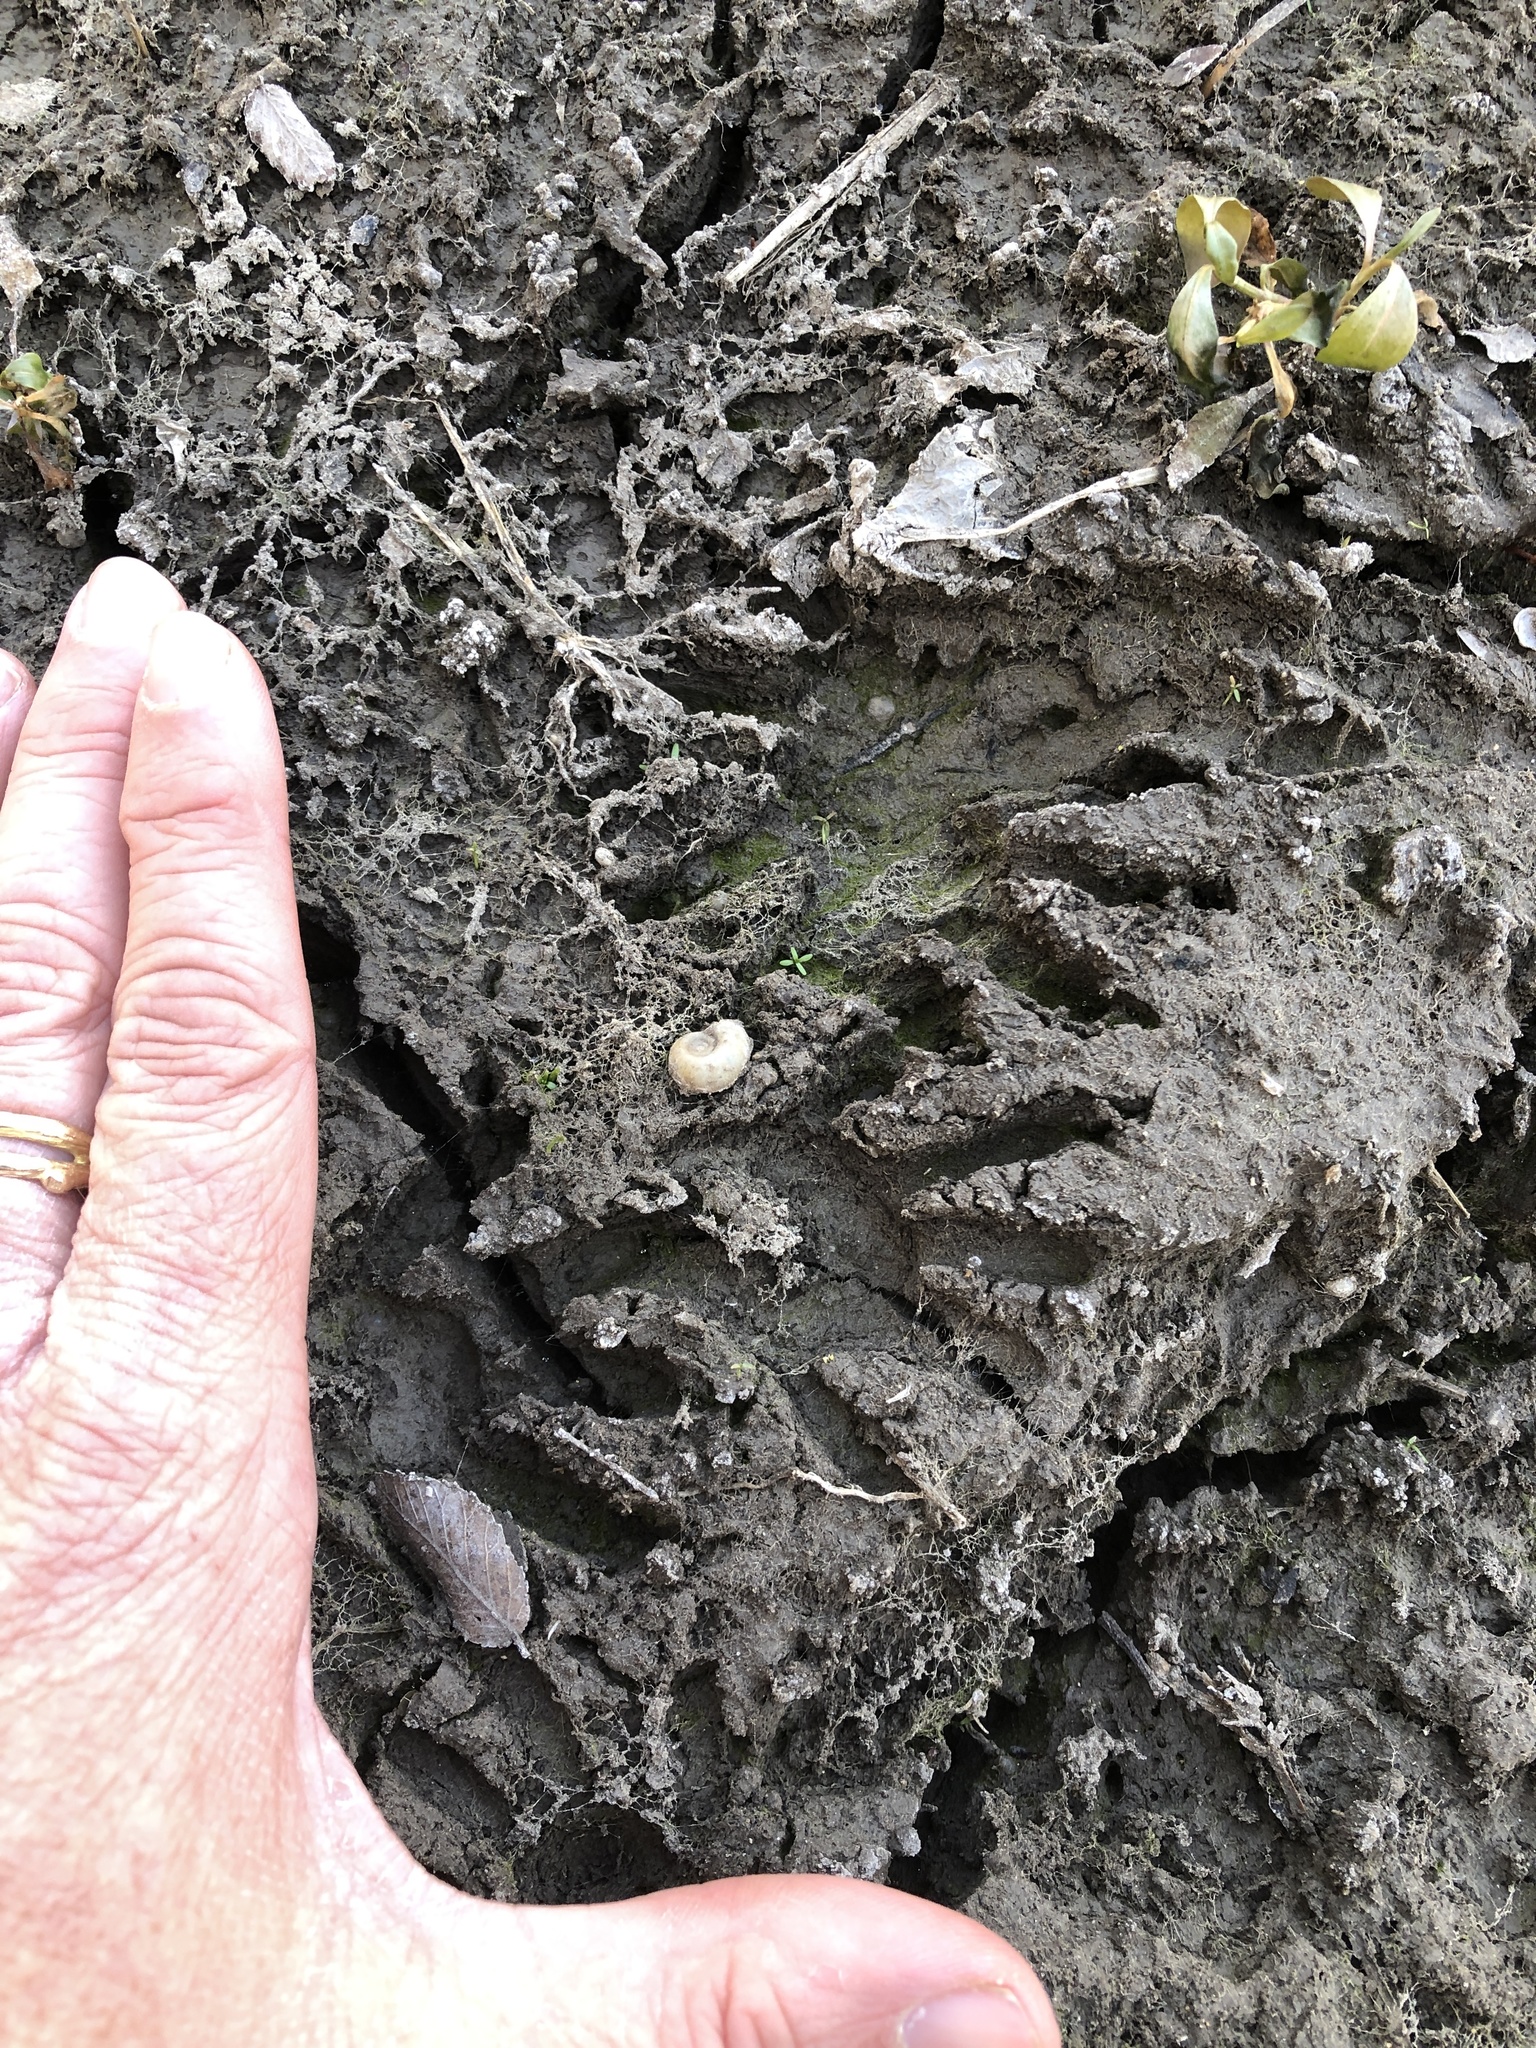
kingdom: Animalia
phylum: Chordata
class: Mammalia
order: Carnivora
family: Procyonidae
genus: Procyon
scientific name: Procyon lotor
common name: Raccoon
